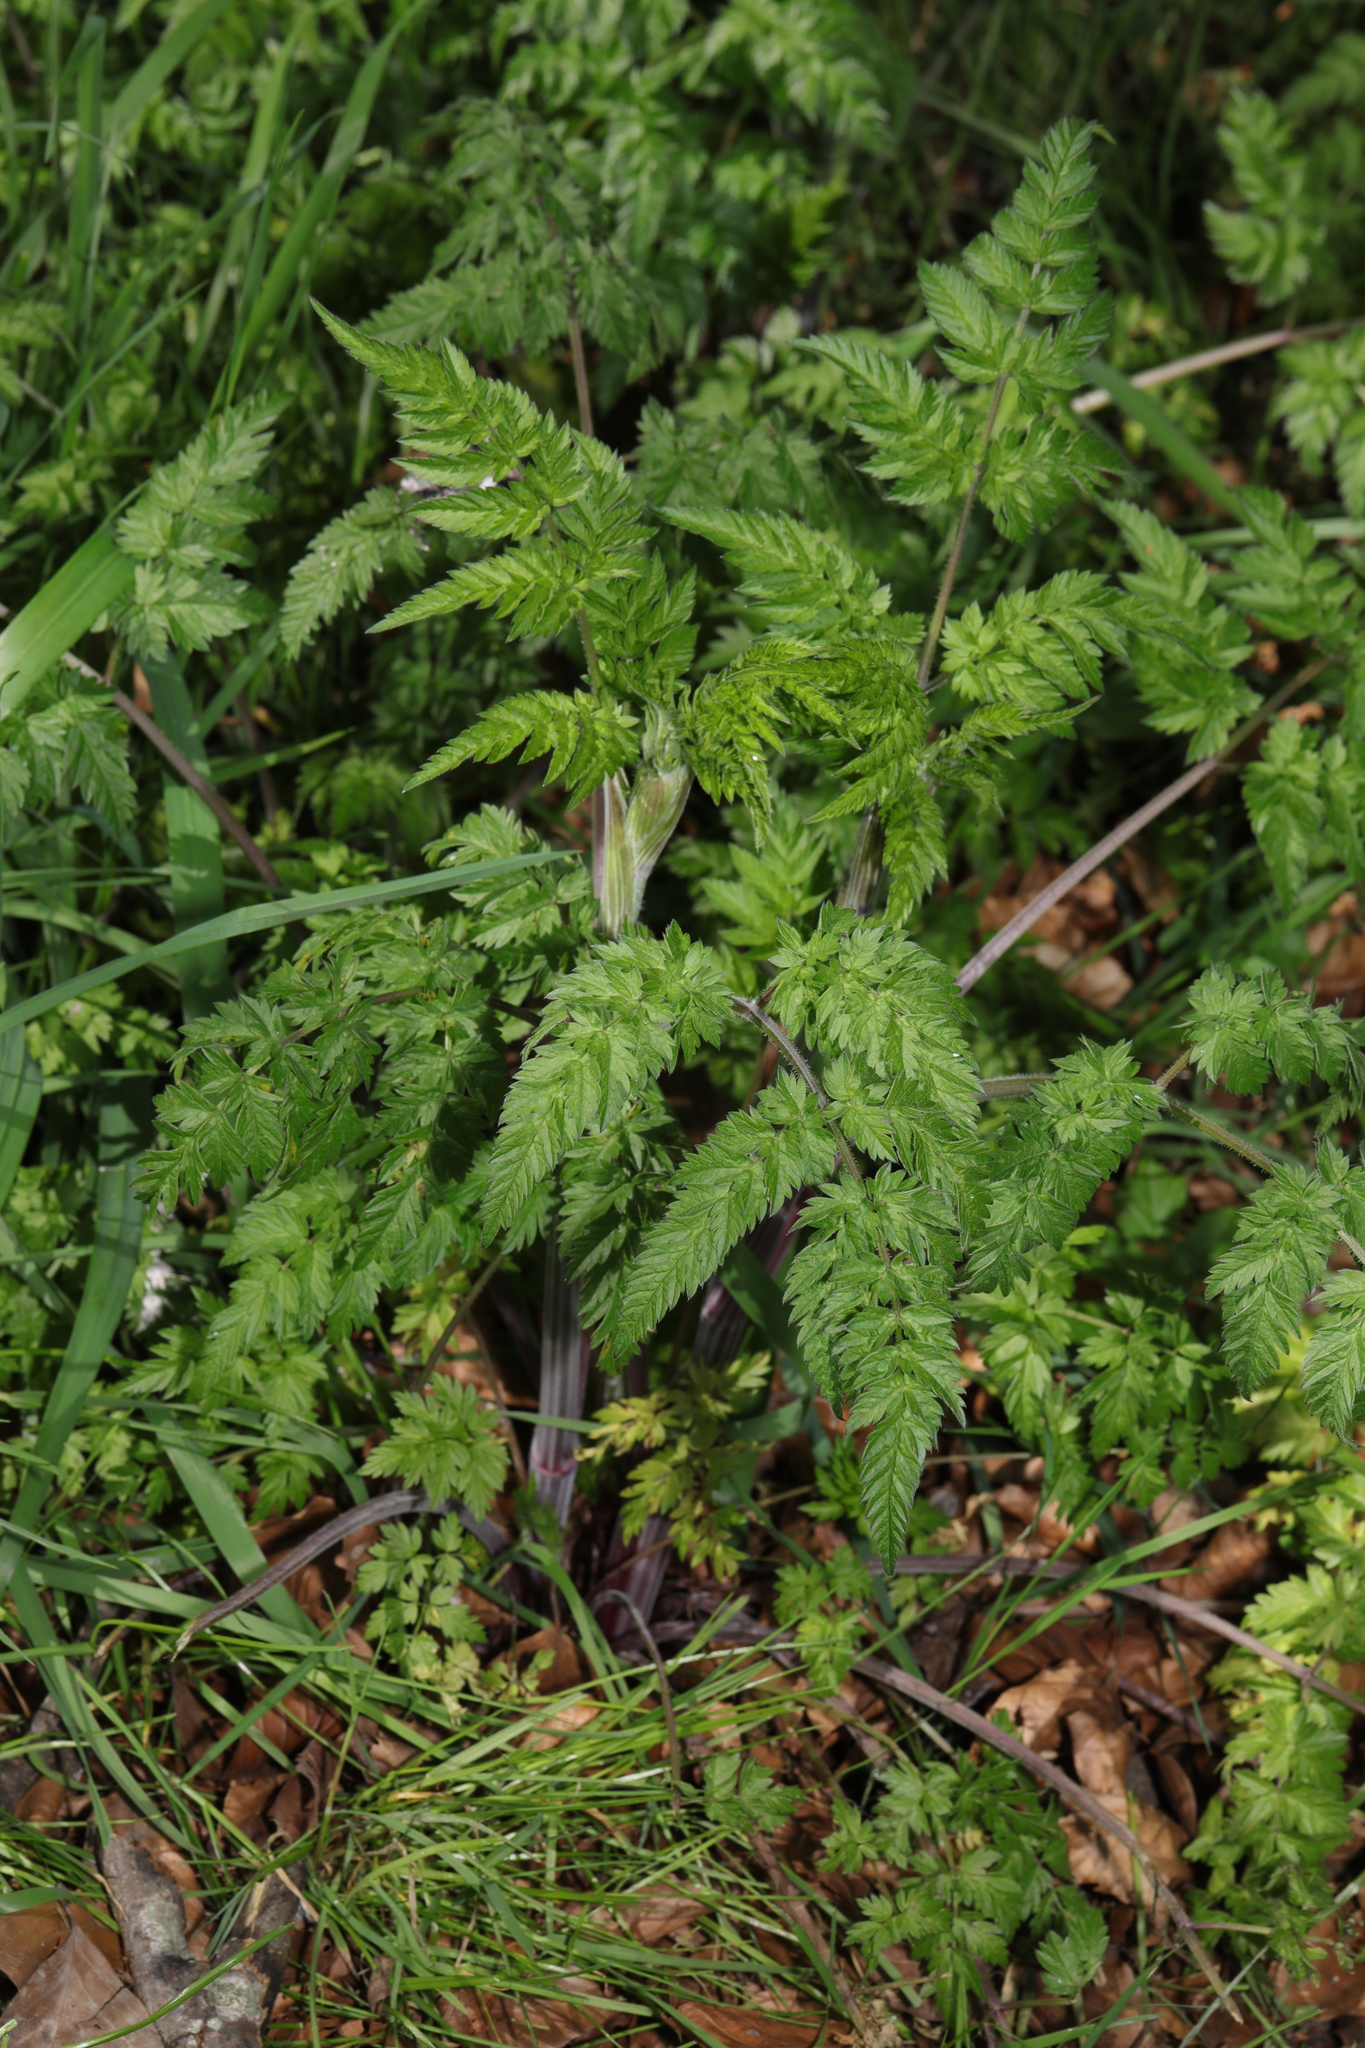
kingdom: Plantae
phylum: Tracheophyta
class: Magnoliopsida
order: Apiales
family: Apiaceae
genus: Anthriscus
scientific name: Anthriscus sylvestris
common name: Cow parsley
